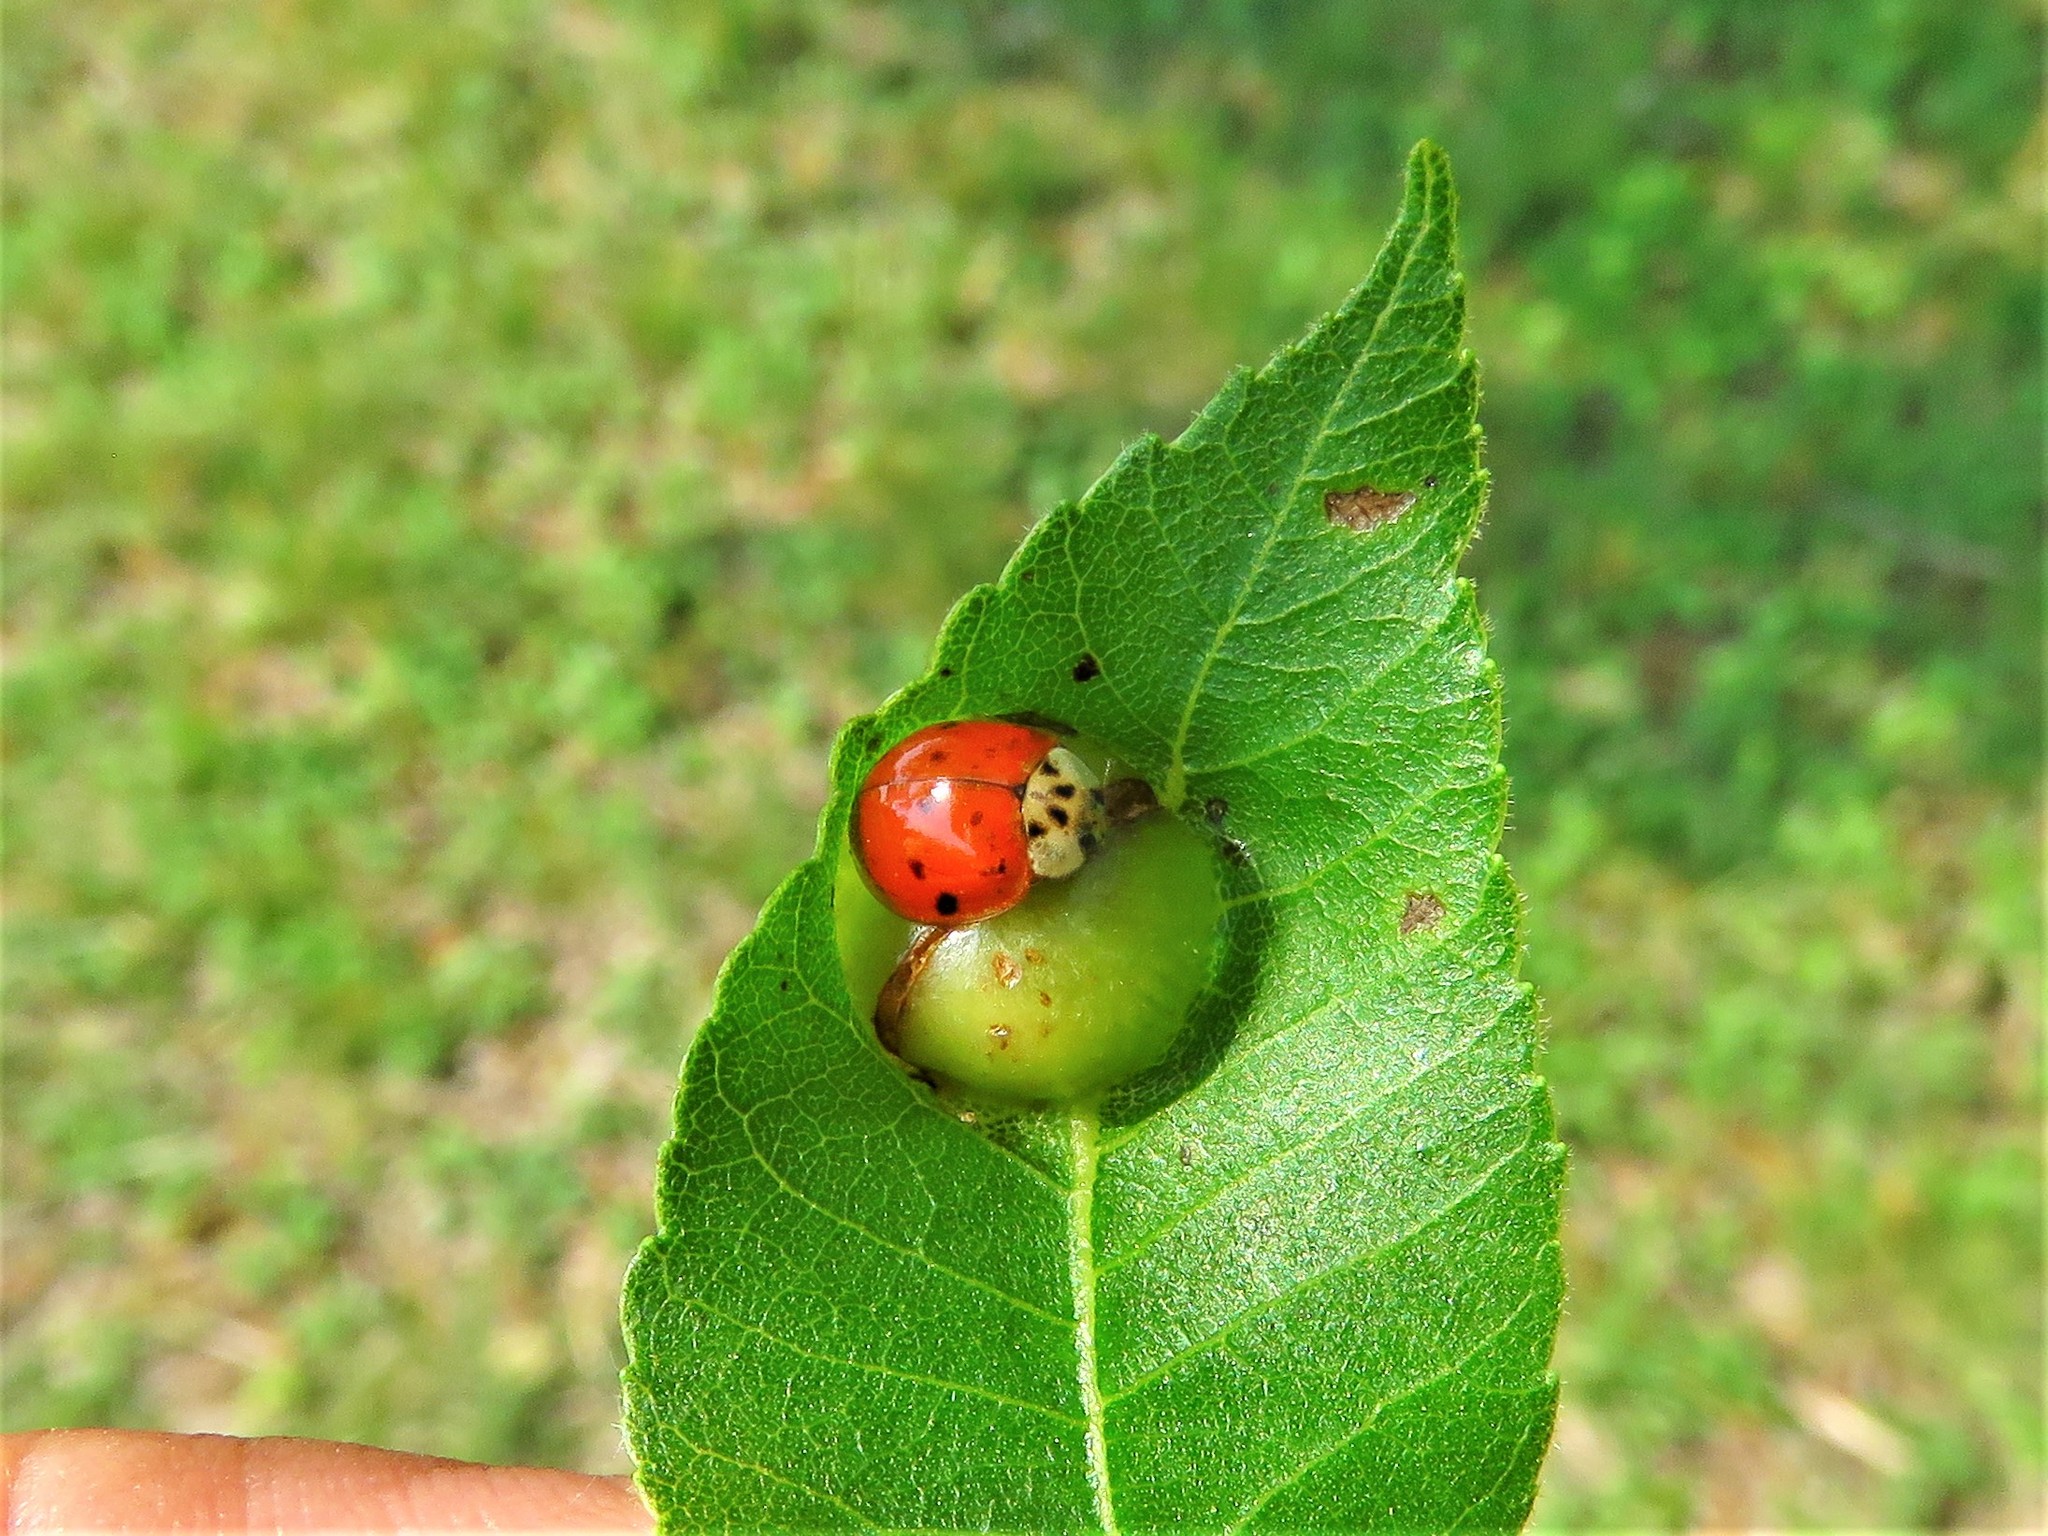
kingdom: Animalia
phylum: Arthropoda
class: Insecta
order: Coleoptera
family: Coccinellidae
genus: Harmonia
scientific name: Harmonia axyridis
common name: Harlequin ladybird
